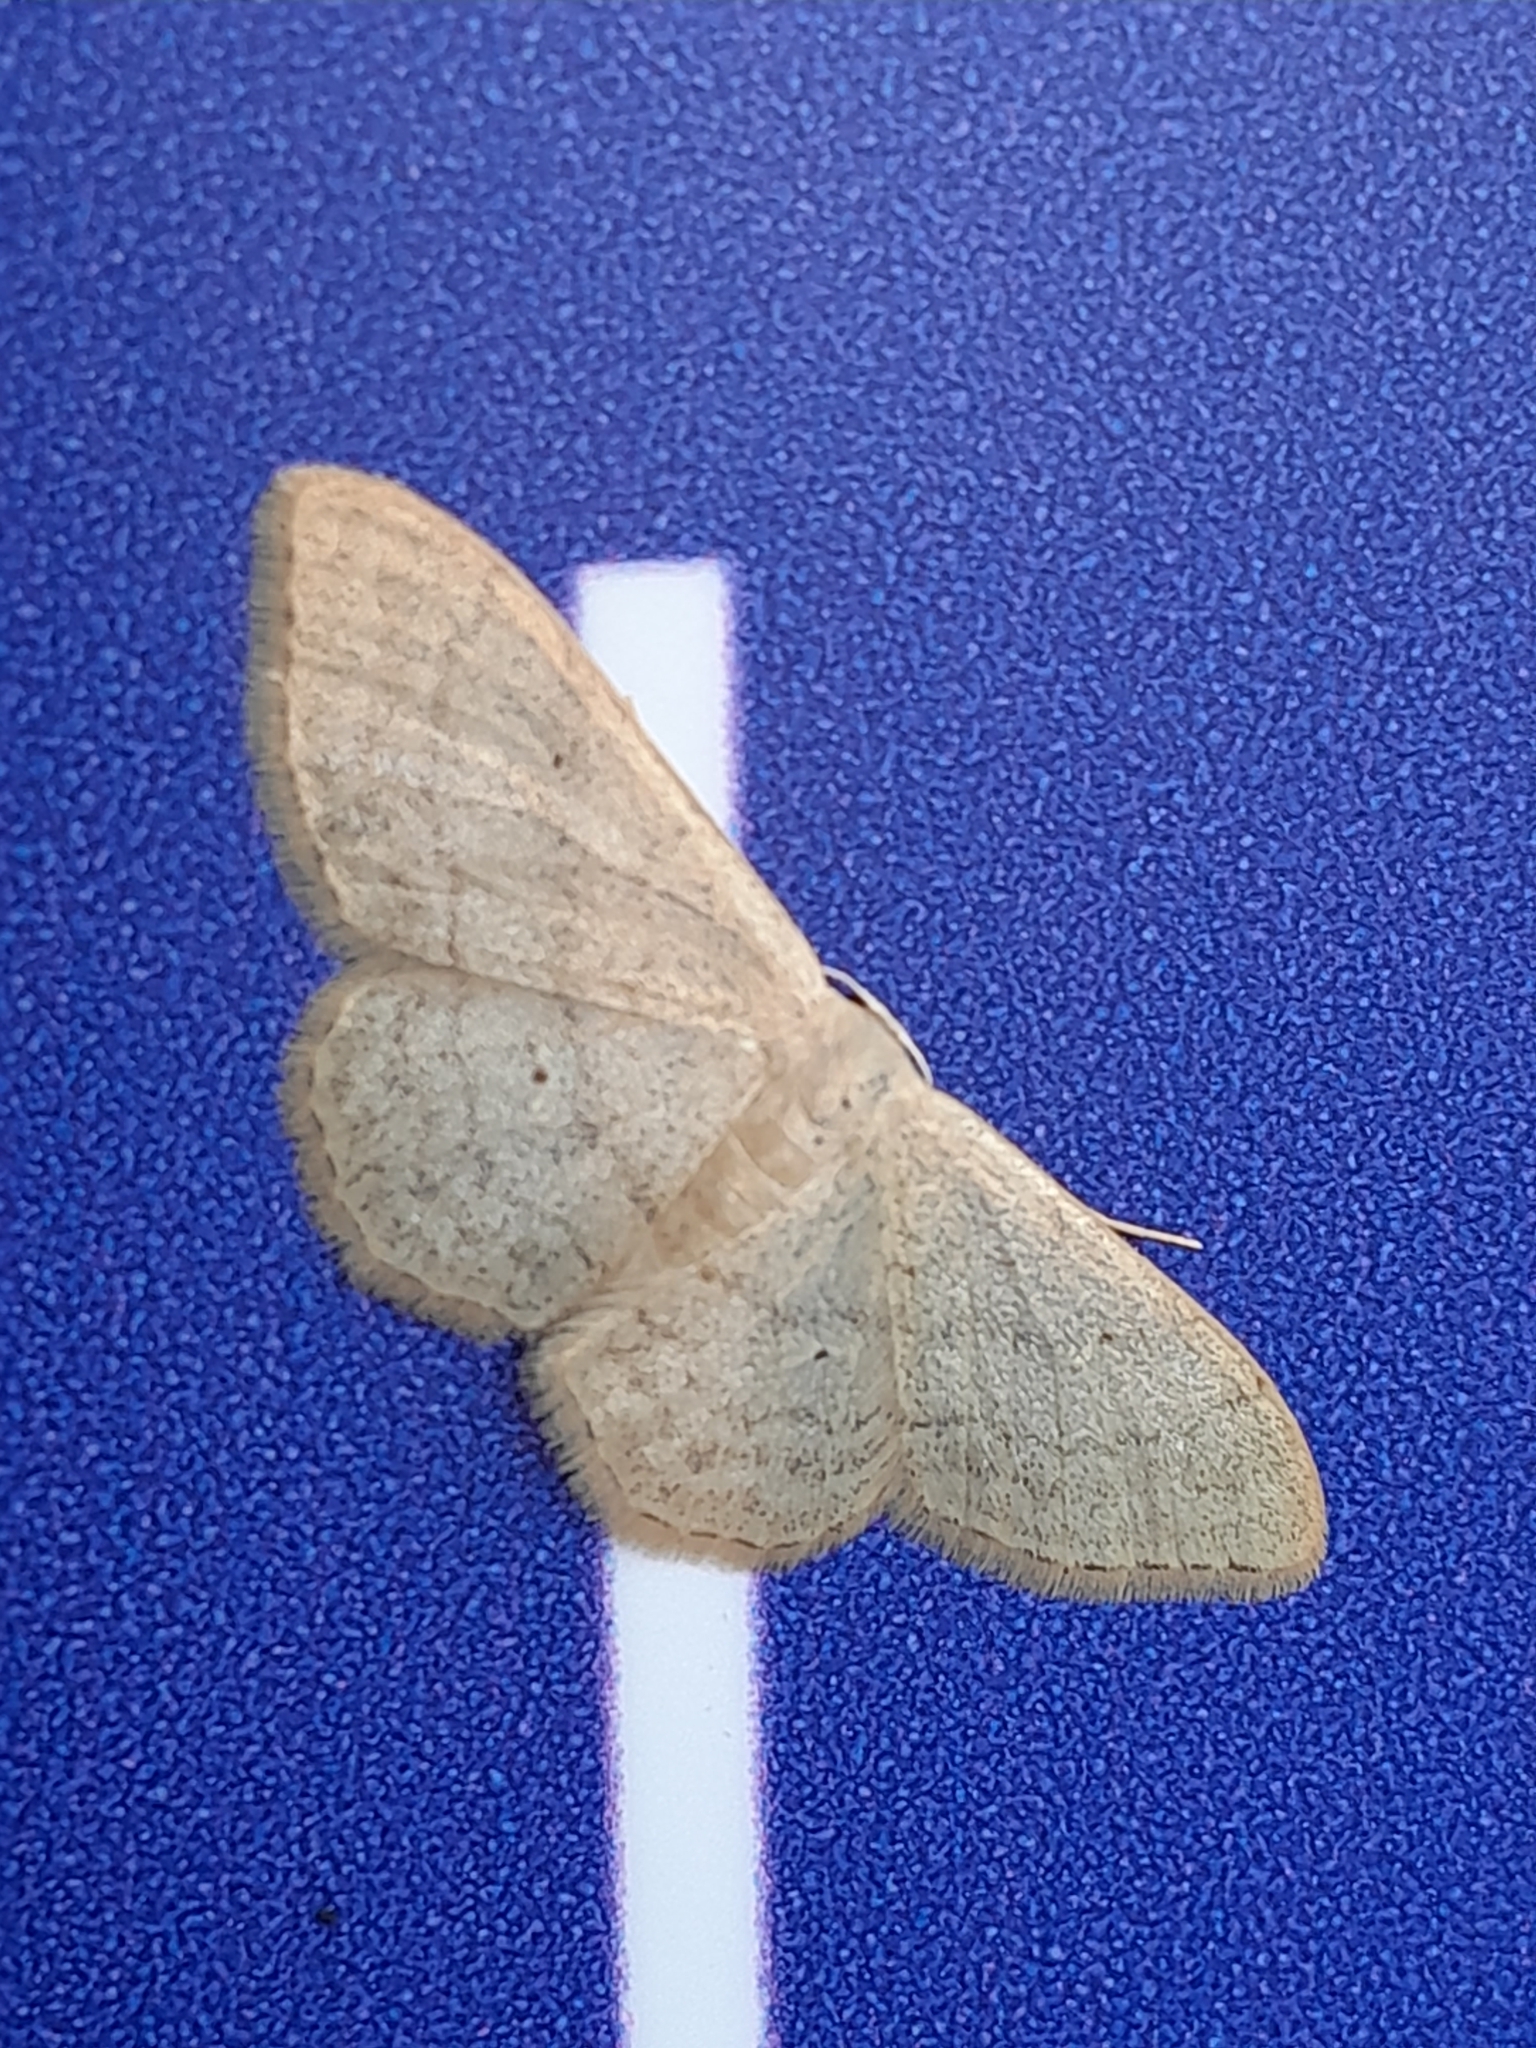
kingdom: Animalia
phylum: Arthropoda
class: Insecta
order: Lepidoptera
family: Geometridae
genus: Idaea
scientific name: Idaea subsericeata
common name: Satin wave
